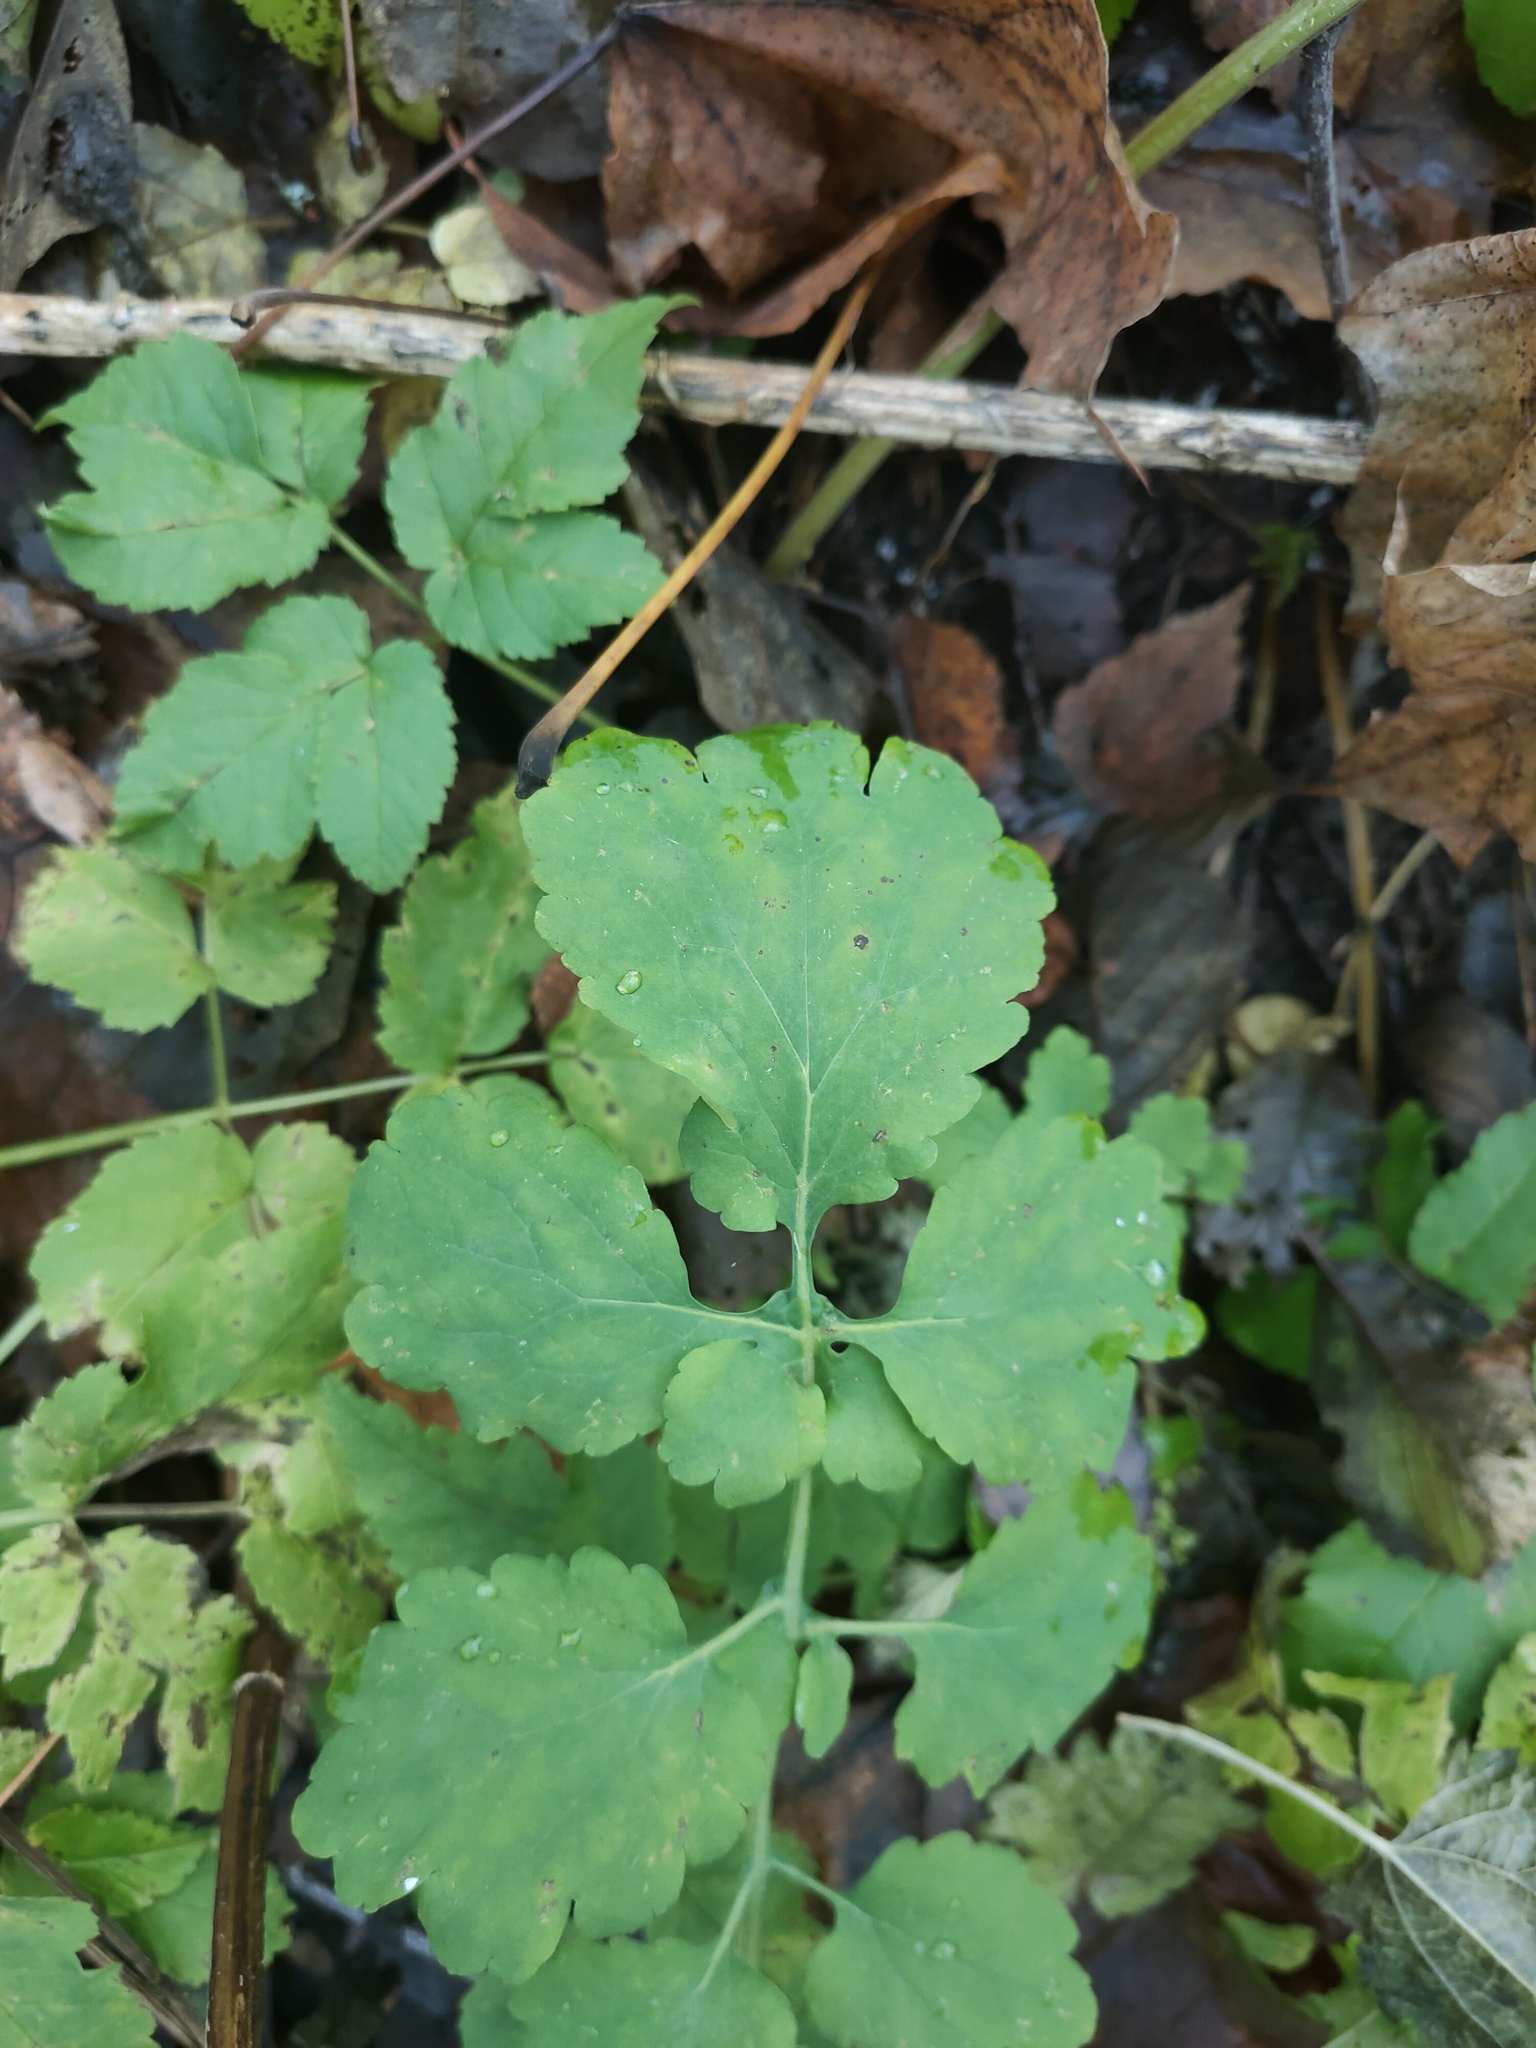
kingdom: Plantae
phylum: Tracheophyta
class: Magnoliopsida
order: Ranunculales
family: Papaveraceae
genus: Chelidonium
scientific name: Chelidonium majus
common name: Greater celandine
